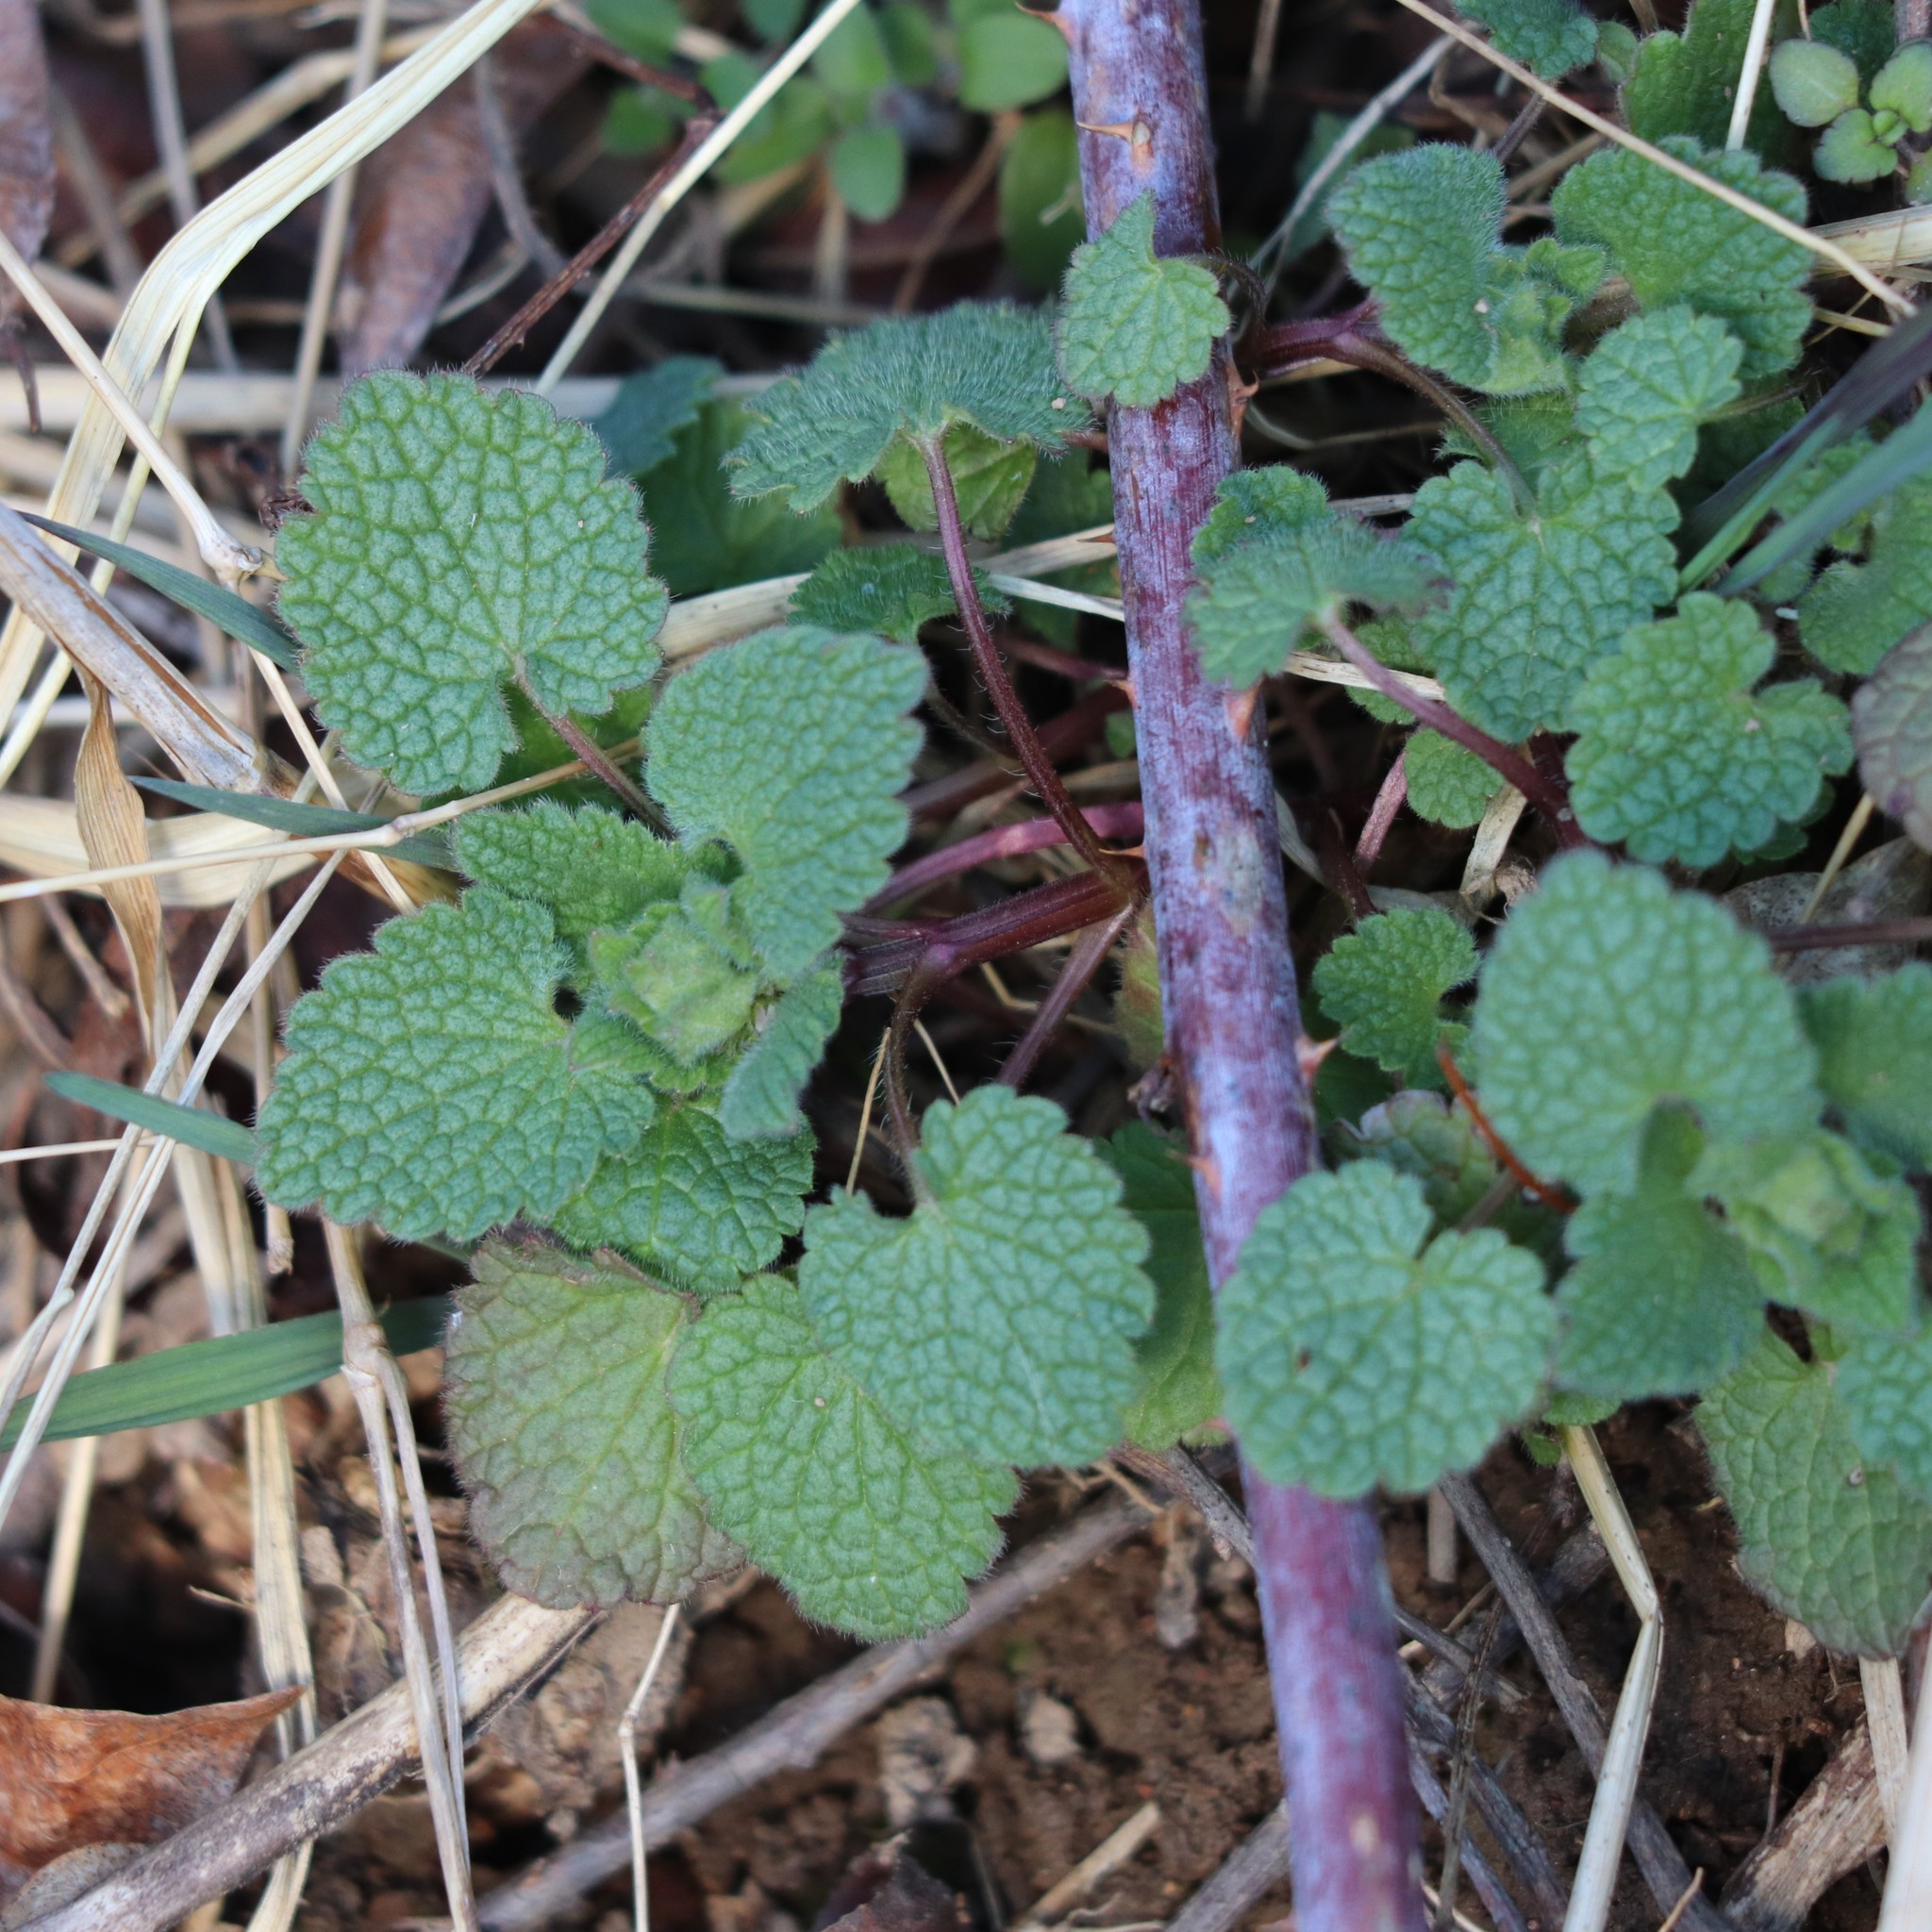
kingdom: Plantae
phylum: Tracheophyta
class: Magnoliopsida
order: Rosales
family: Rosaceae
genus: Rubus
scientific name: Rubus occidentalis
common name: Black raspberry
